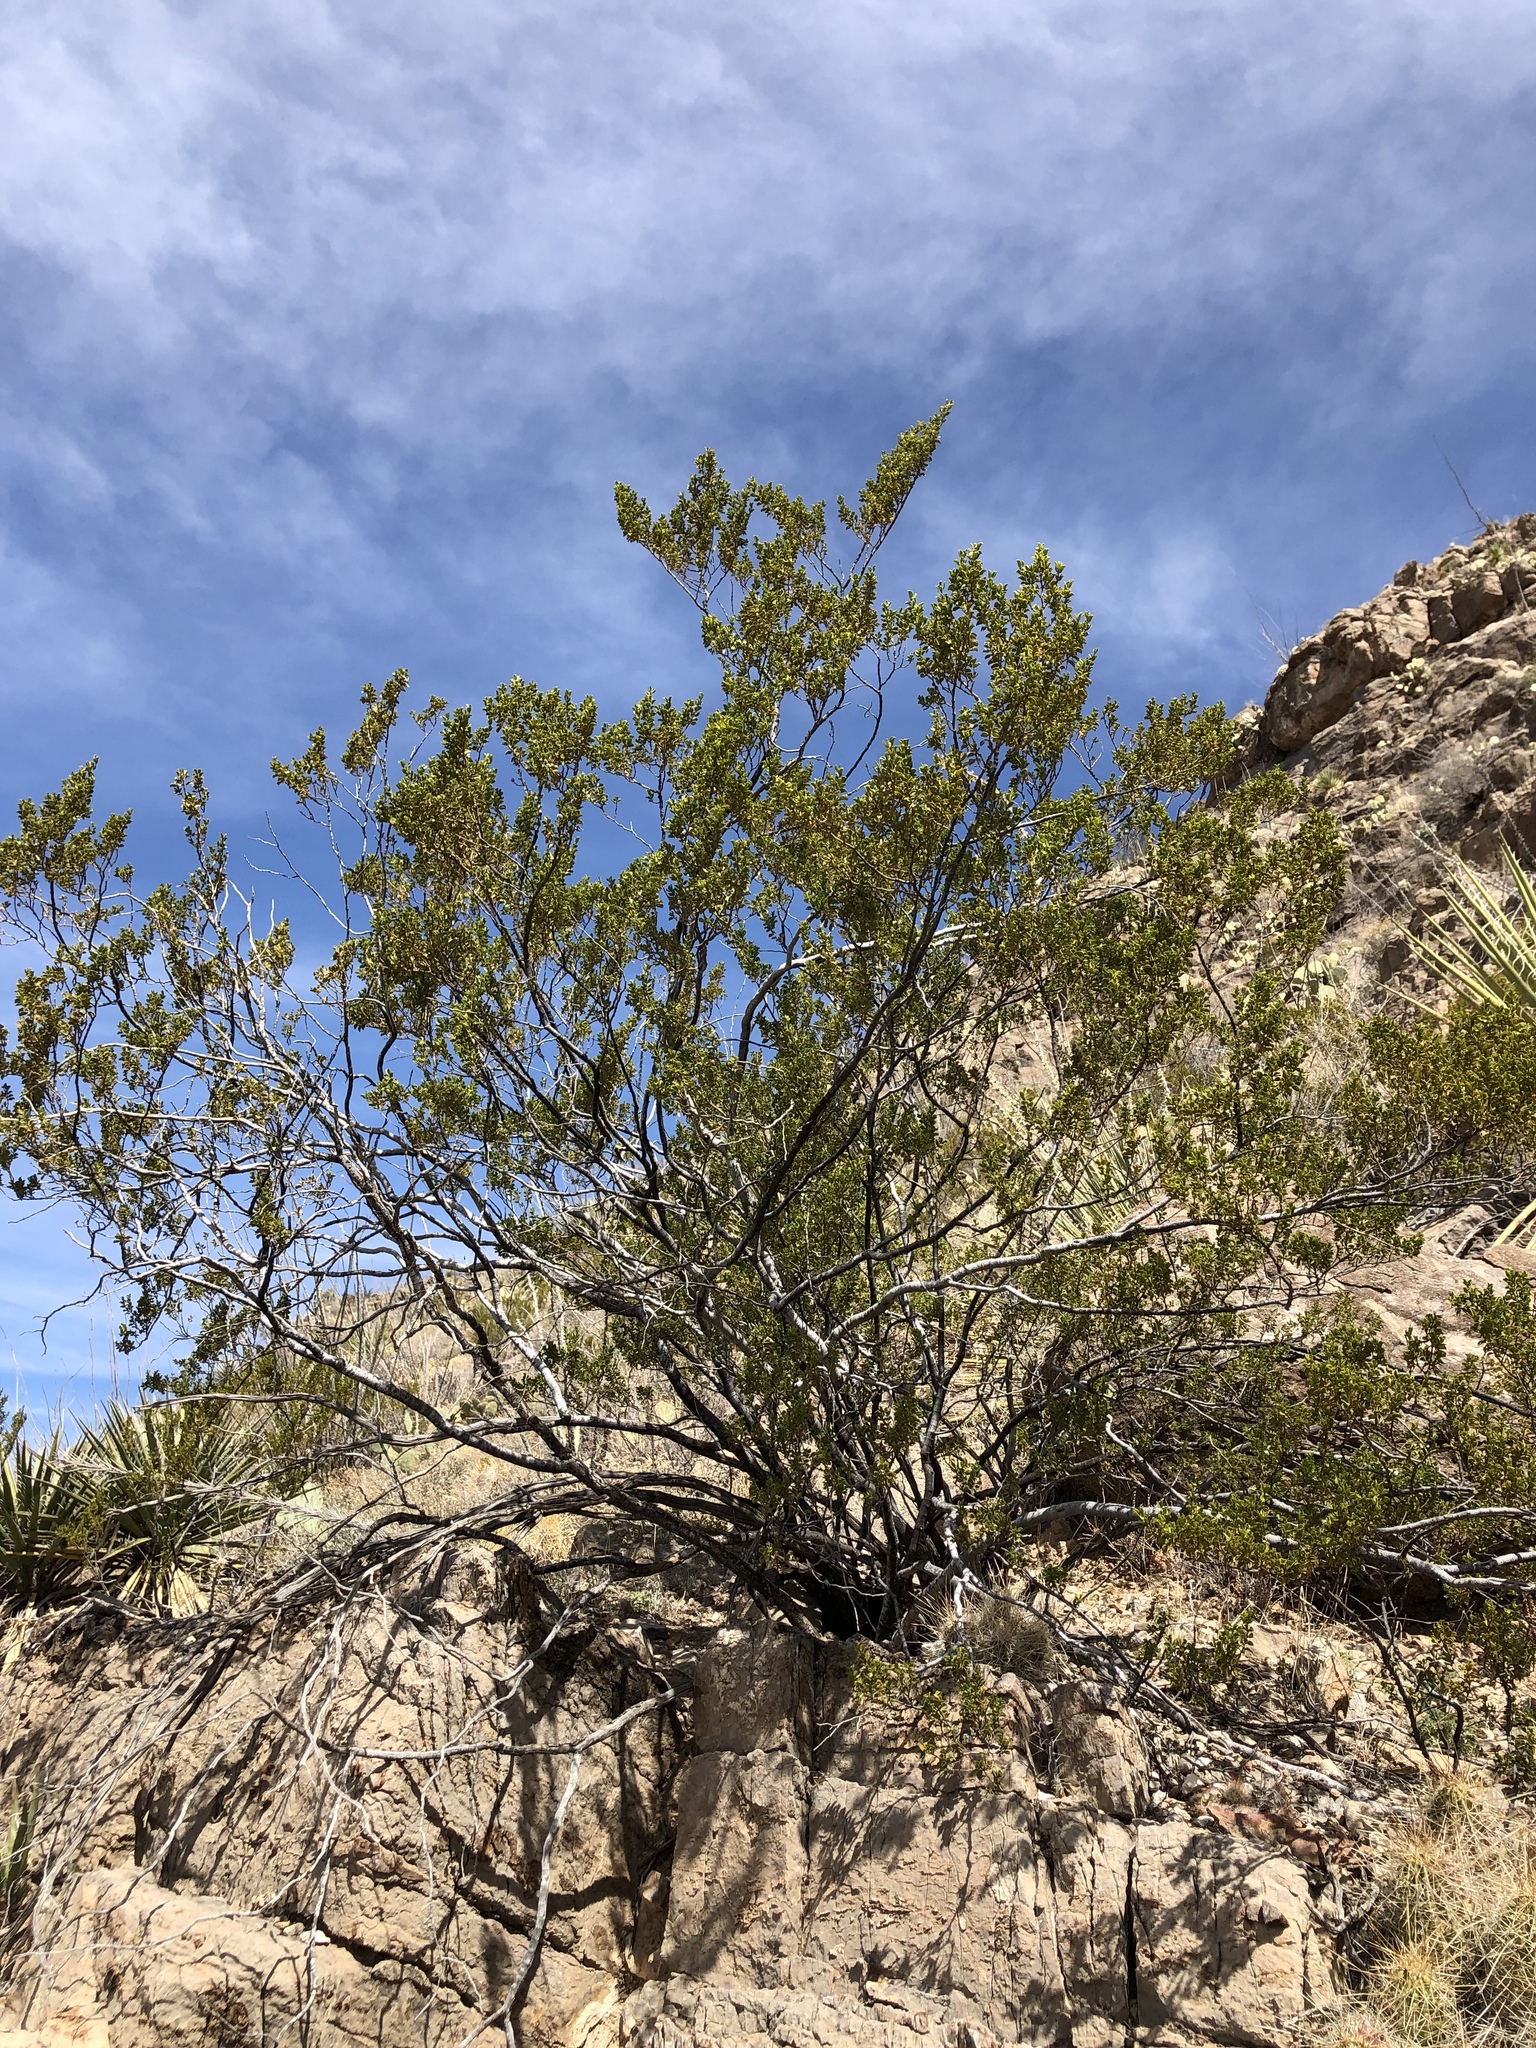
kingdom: Plantae
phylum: Tracheophyta
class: Magnoliopsida
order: Zygophyllales
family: Zygophyllaceae
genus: Larrea
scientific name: Larrea tridentata
